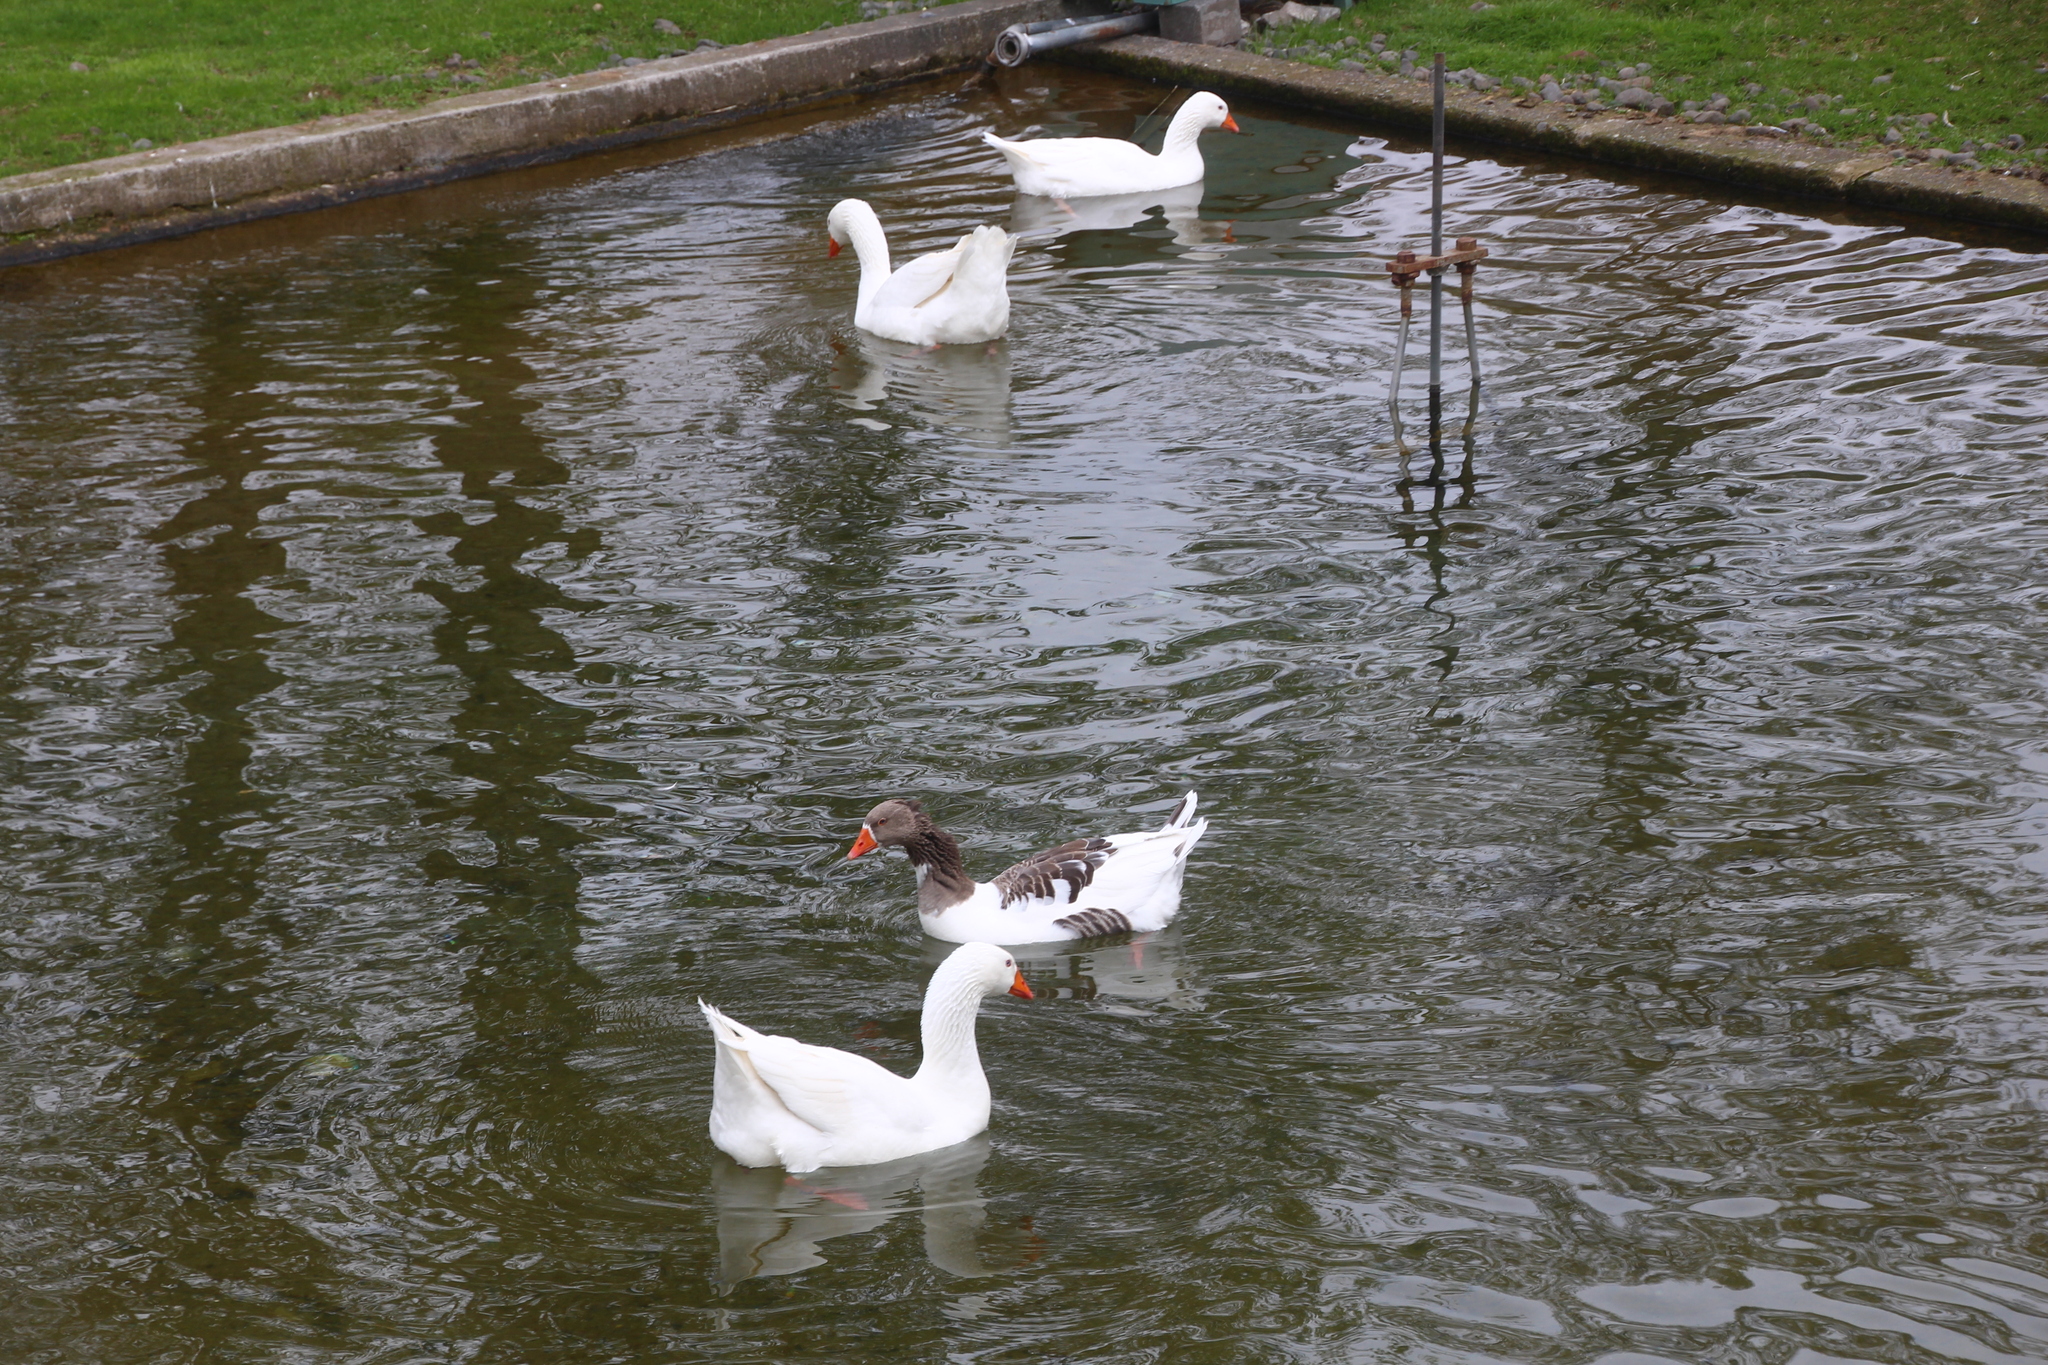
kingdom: Animalia
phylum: Chordata
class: Aves
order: Anseriformes
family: Anatidae
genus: Anser
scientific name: Anser anser
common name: Greylag goose
